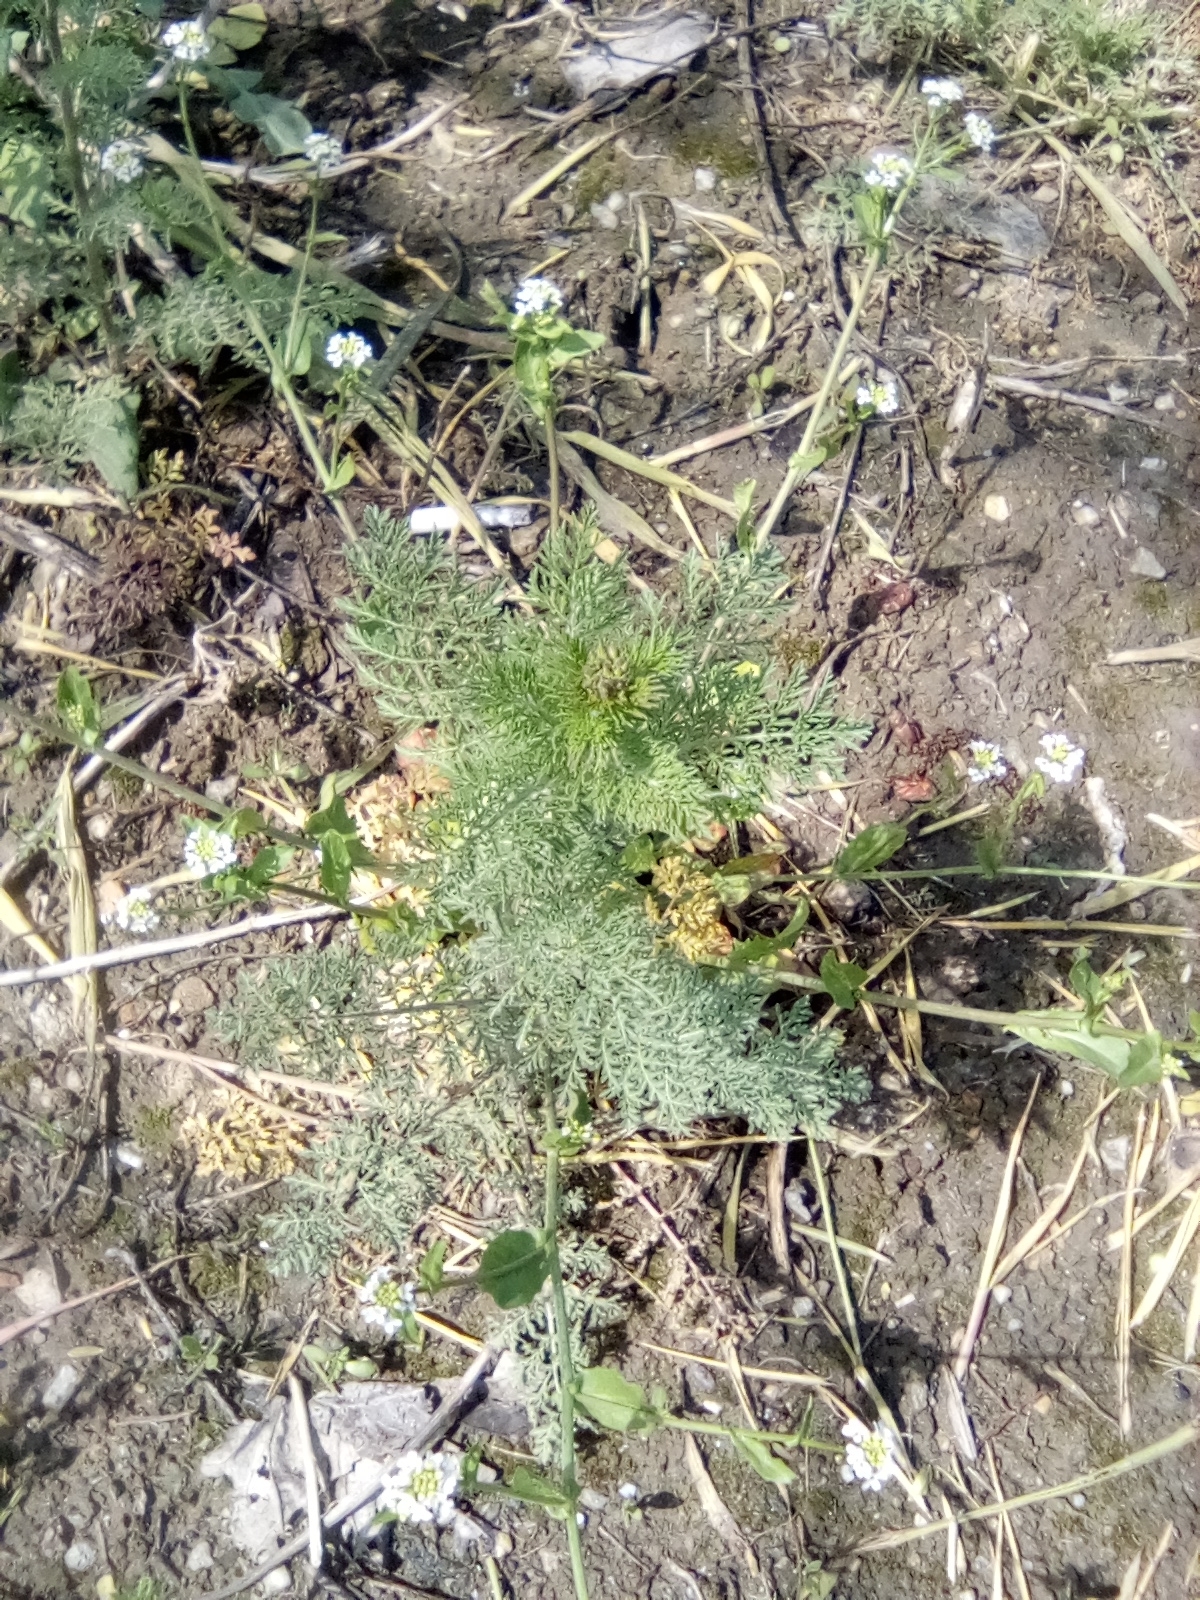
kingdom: Plantae
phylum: Tracheophyta
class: Magnoliopsida
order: Brassicales
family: Brassicaceae
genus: Descurainia
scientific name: Descurainia sophia
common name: Flixweed
